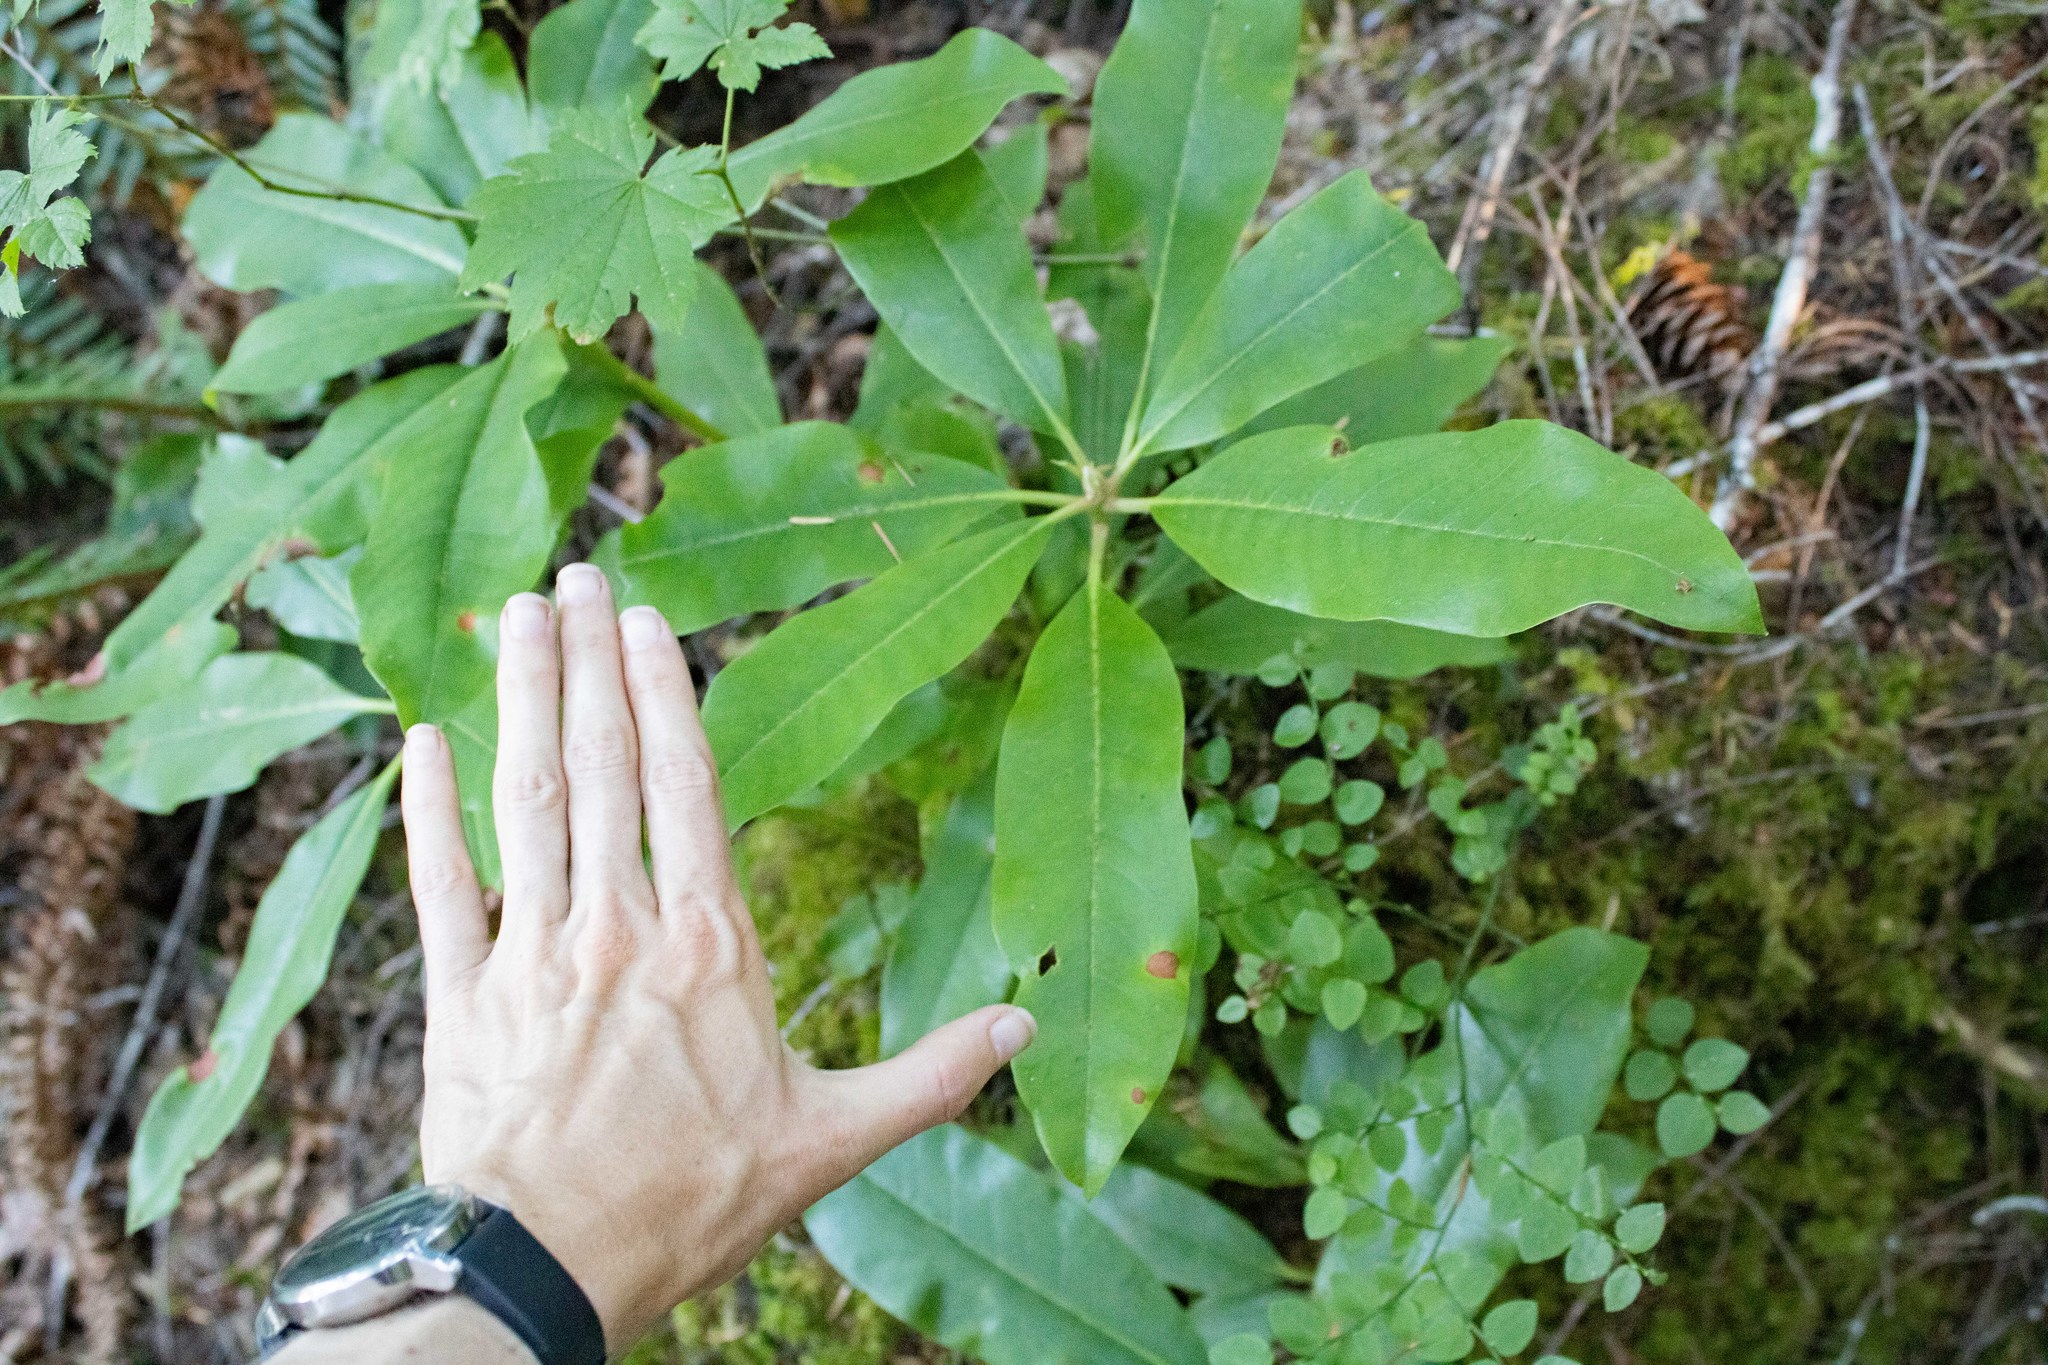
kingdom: Plantae
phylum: Tracheophyta
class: Magnoliopsida
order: Ericales
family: Ericaceae
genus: Rhododendron
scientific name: Rhododendron macrophyllum
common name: California rose bay
